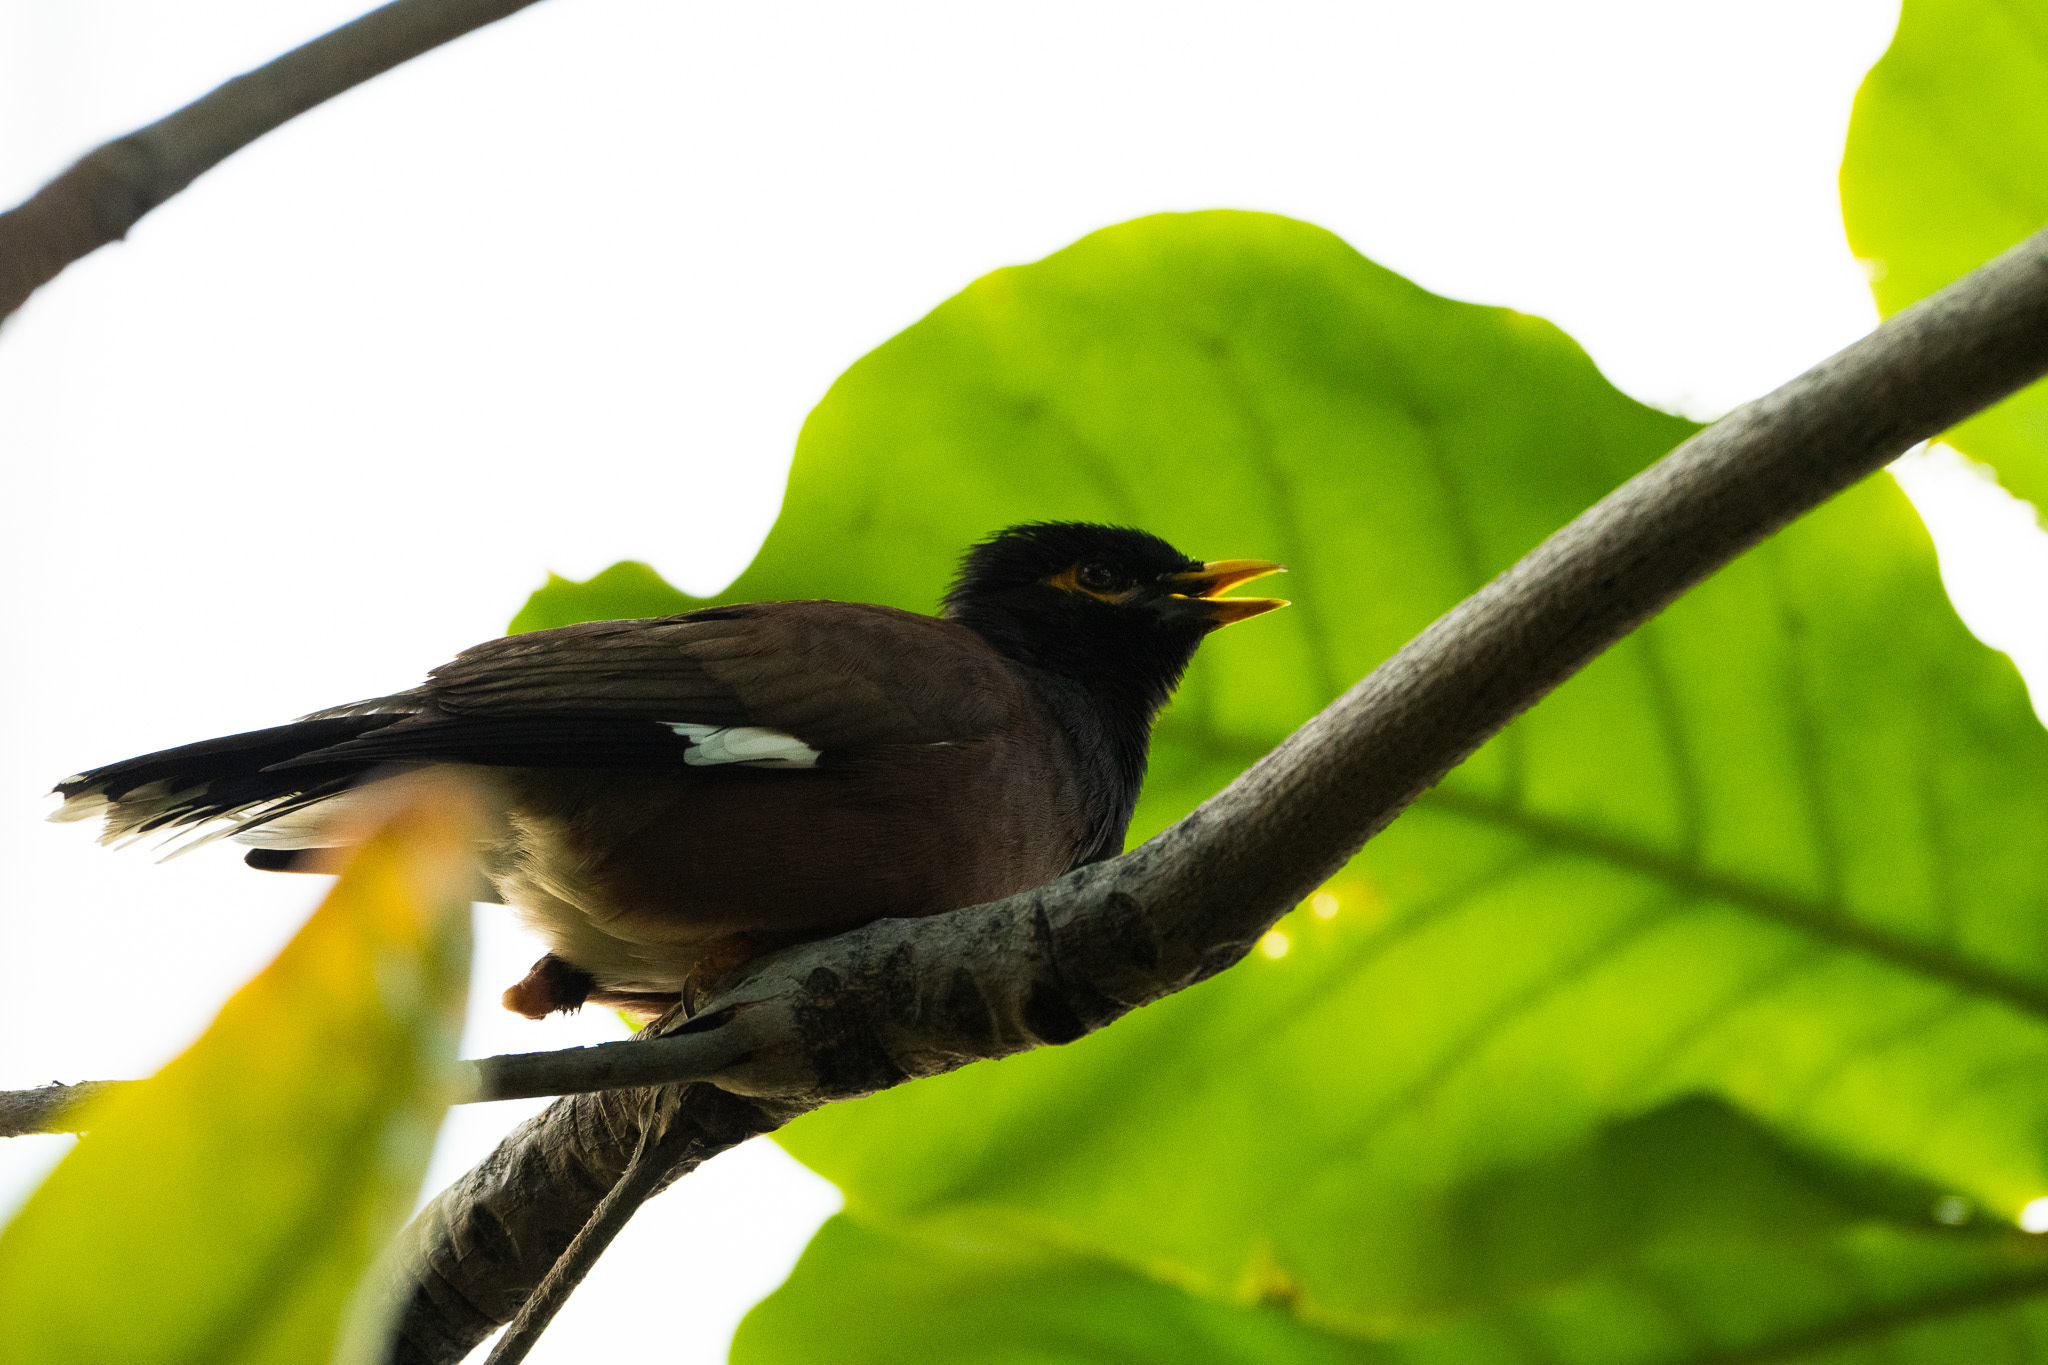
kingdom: Animalia
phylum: Chordata
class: Aves
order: Passeriformes
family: Sturnidae
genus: Acridotheres
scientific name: Acridotheres tristis
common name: Common myna
